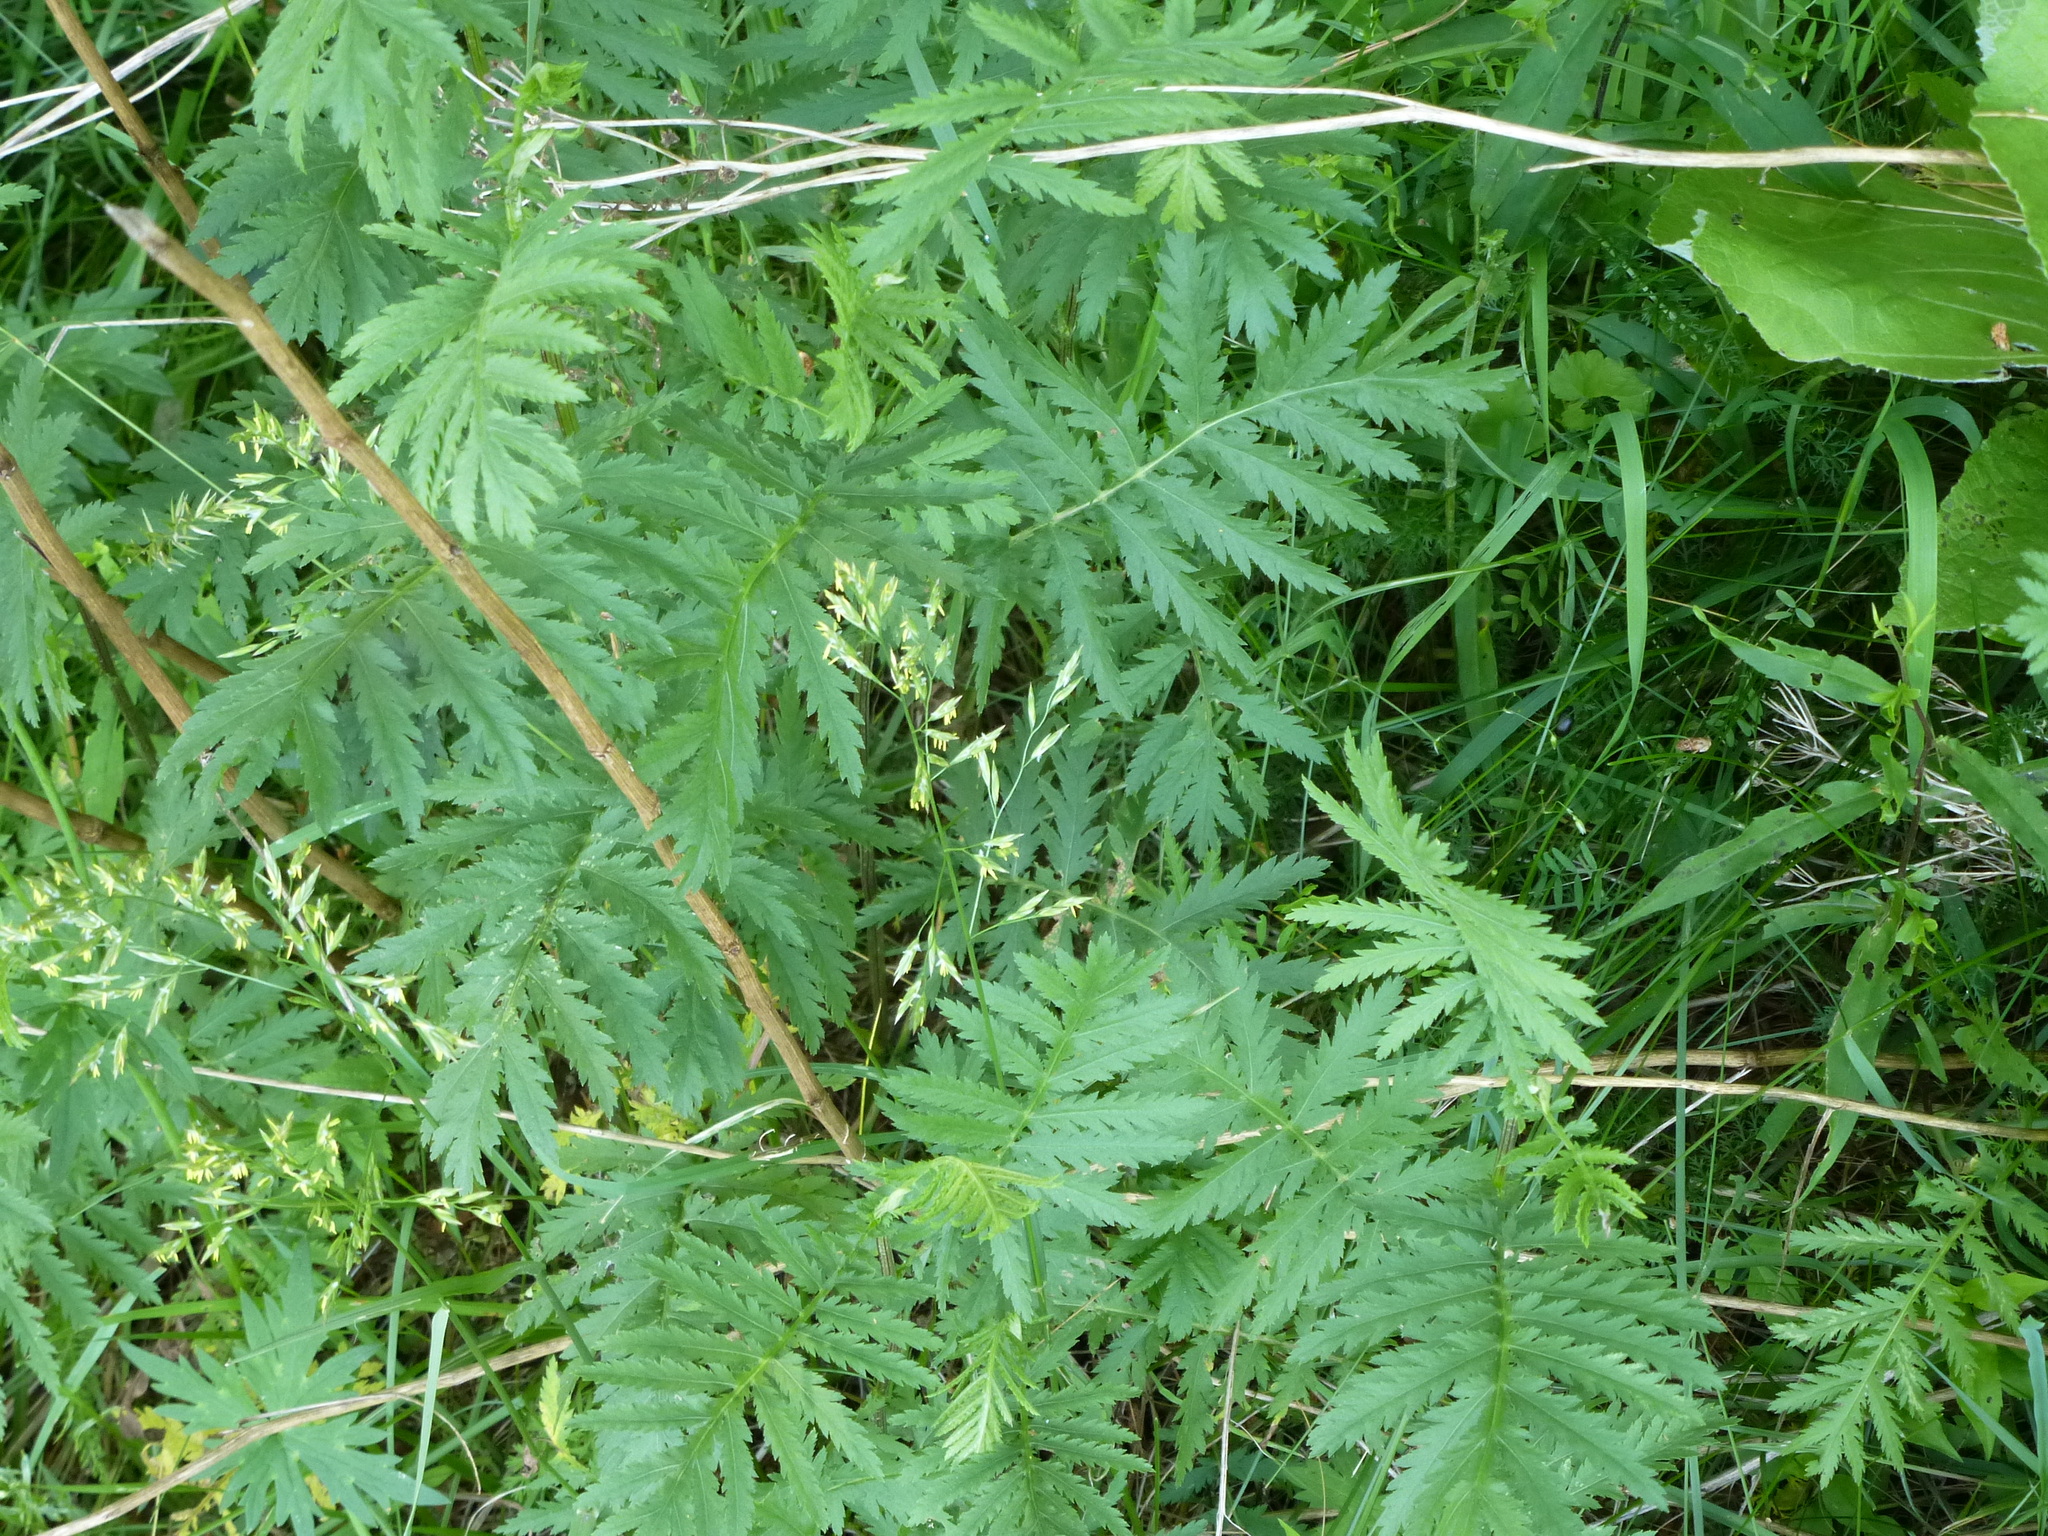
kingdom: Plantae
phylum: Tracheophyta
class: Magnoliopsida
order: Asterales
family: Asteraceae
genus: Tanacetum
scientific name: Tanacetum vulgare
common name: Common tansy
